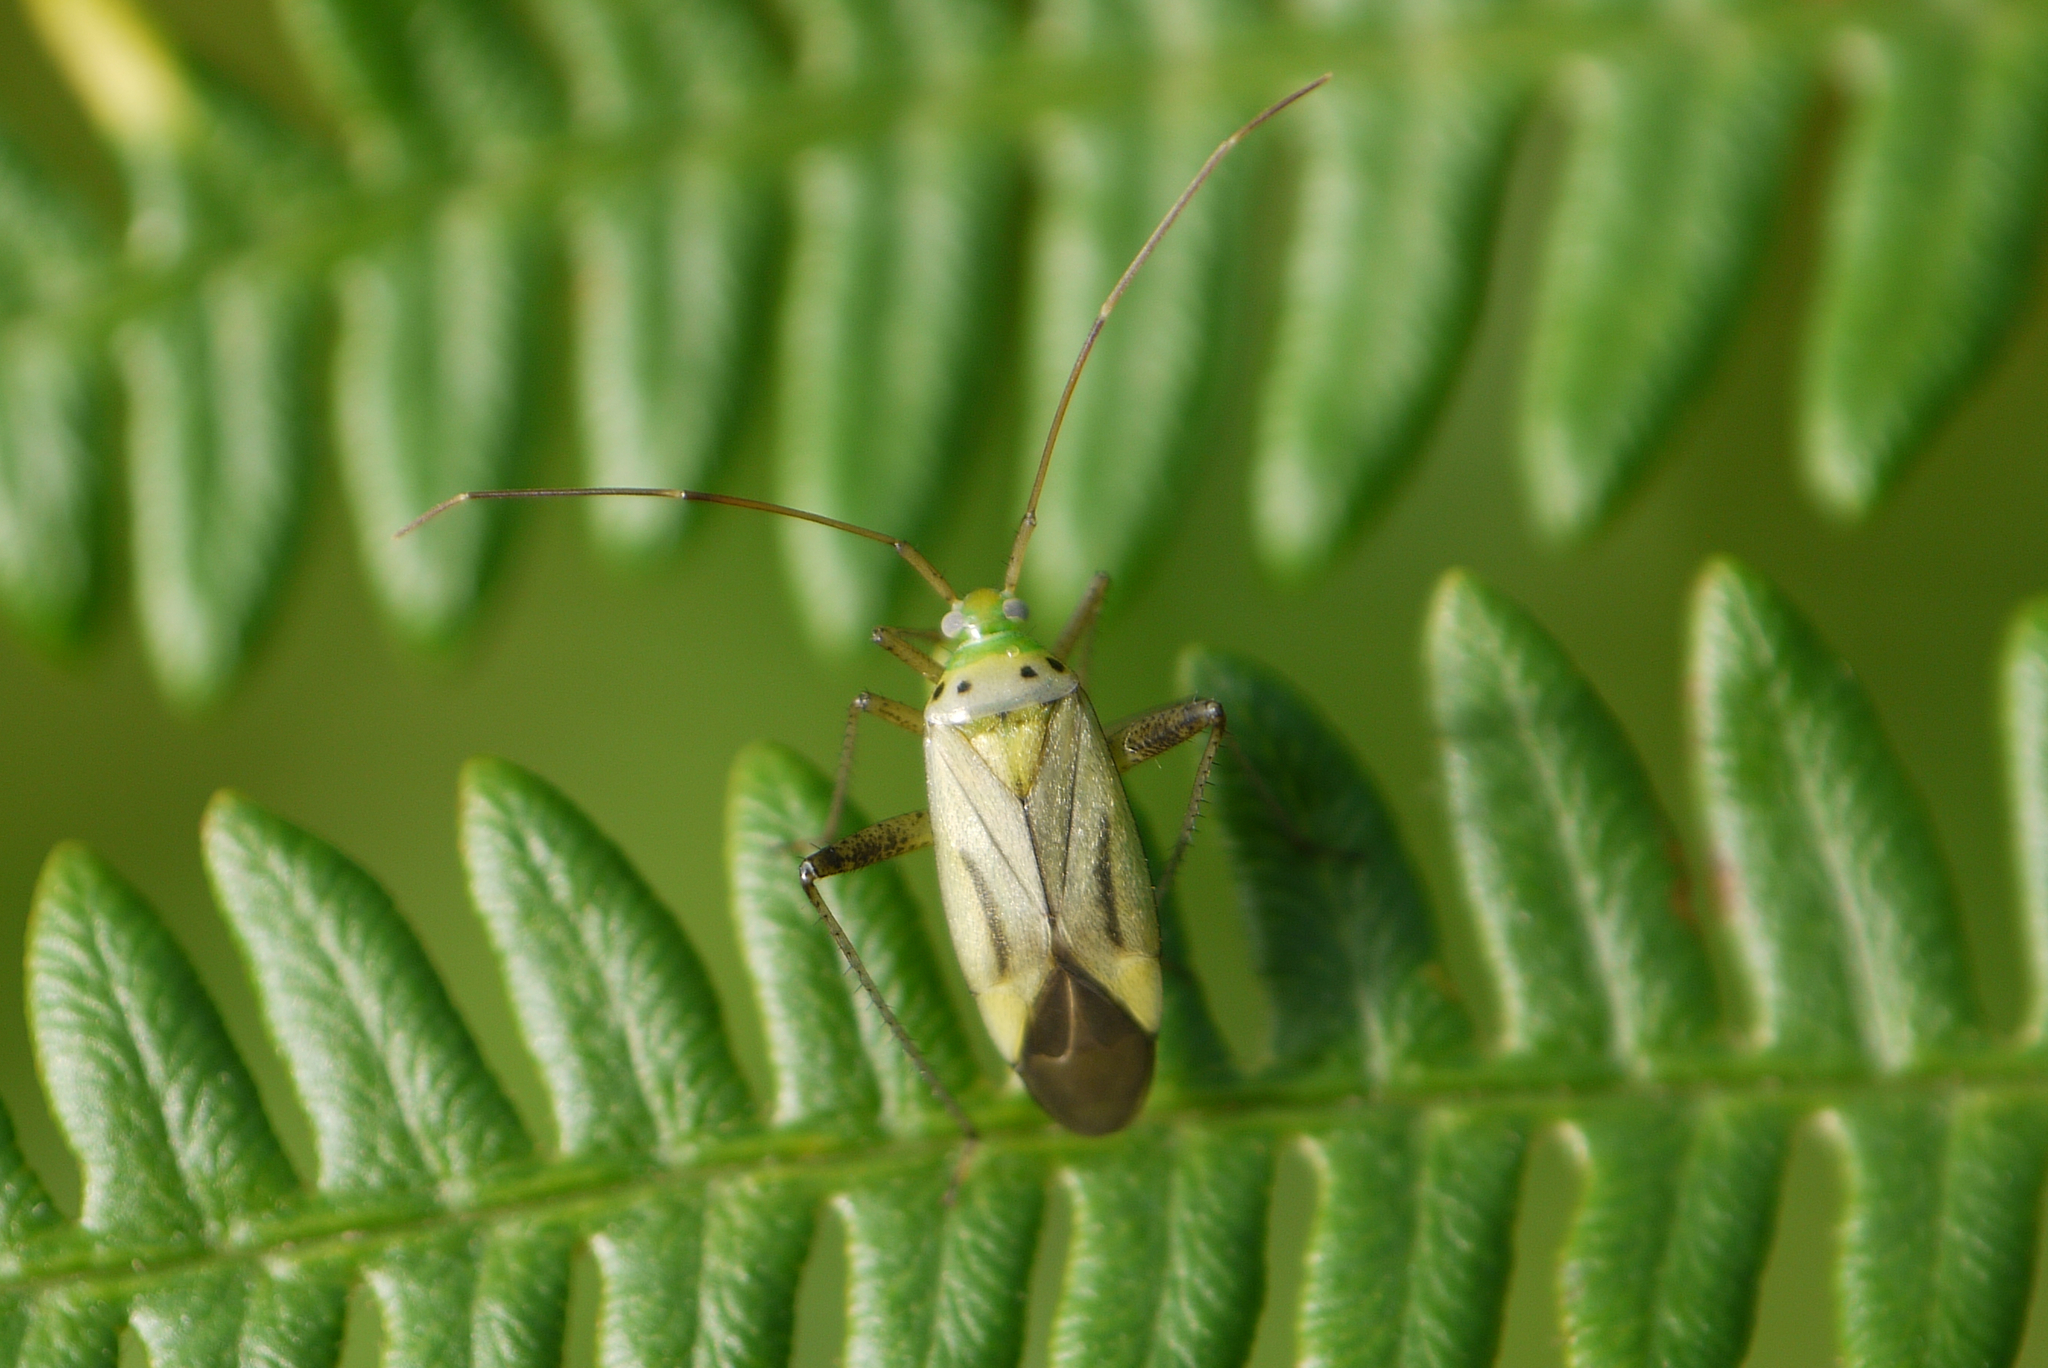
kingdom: Animalia
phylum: Arthropoda
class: Insecta
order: Hemiptera
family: Miridae
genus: Adelphocoris
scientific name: Adelphocoris quadripunctatus
